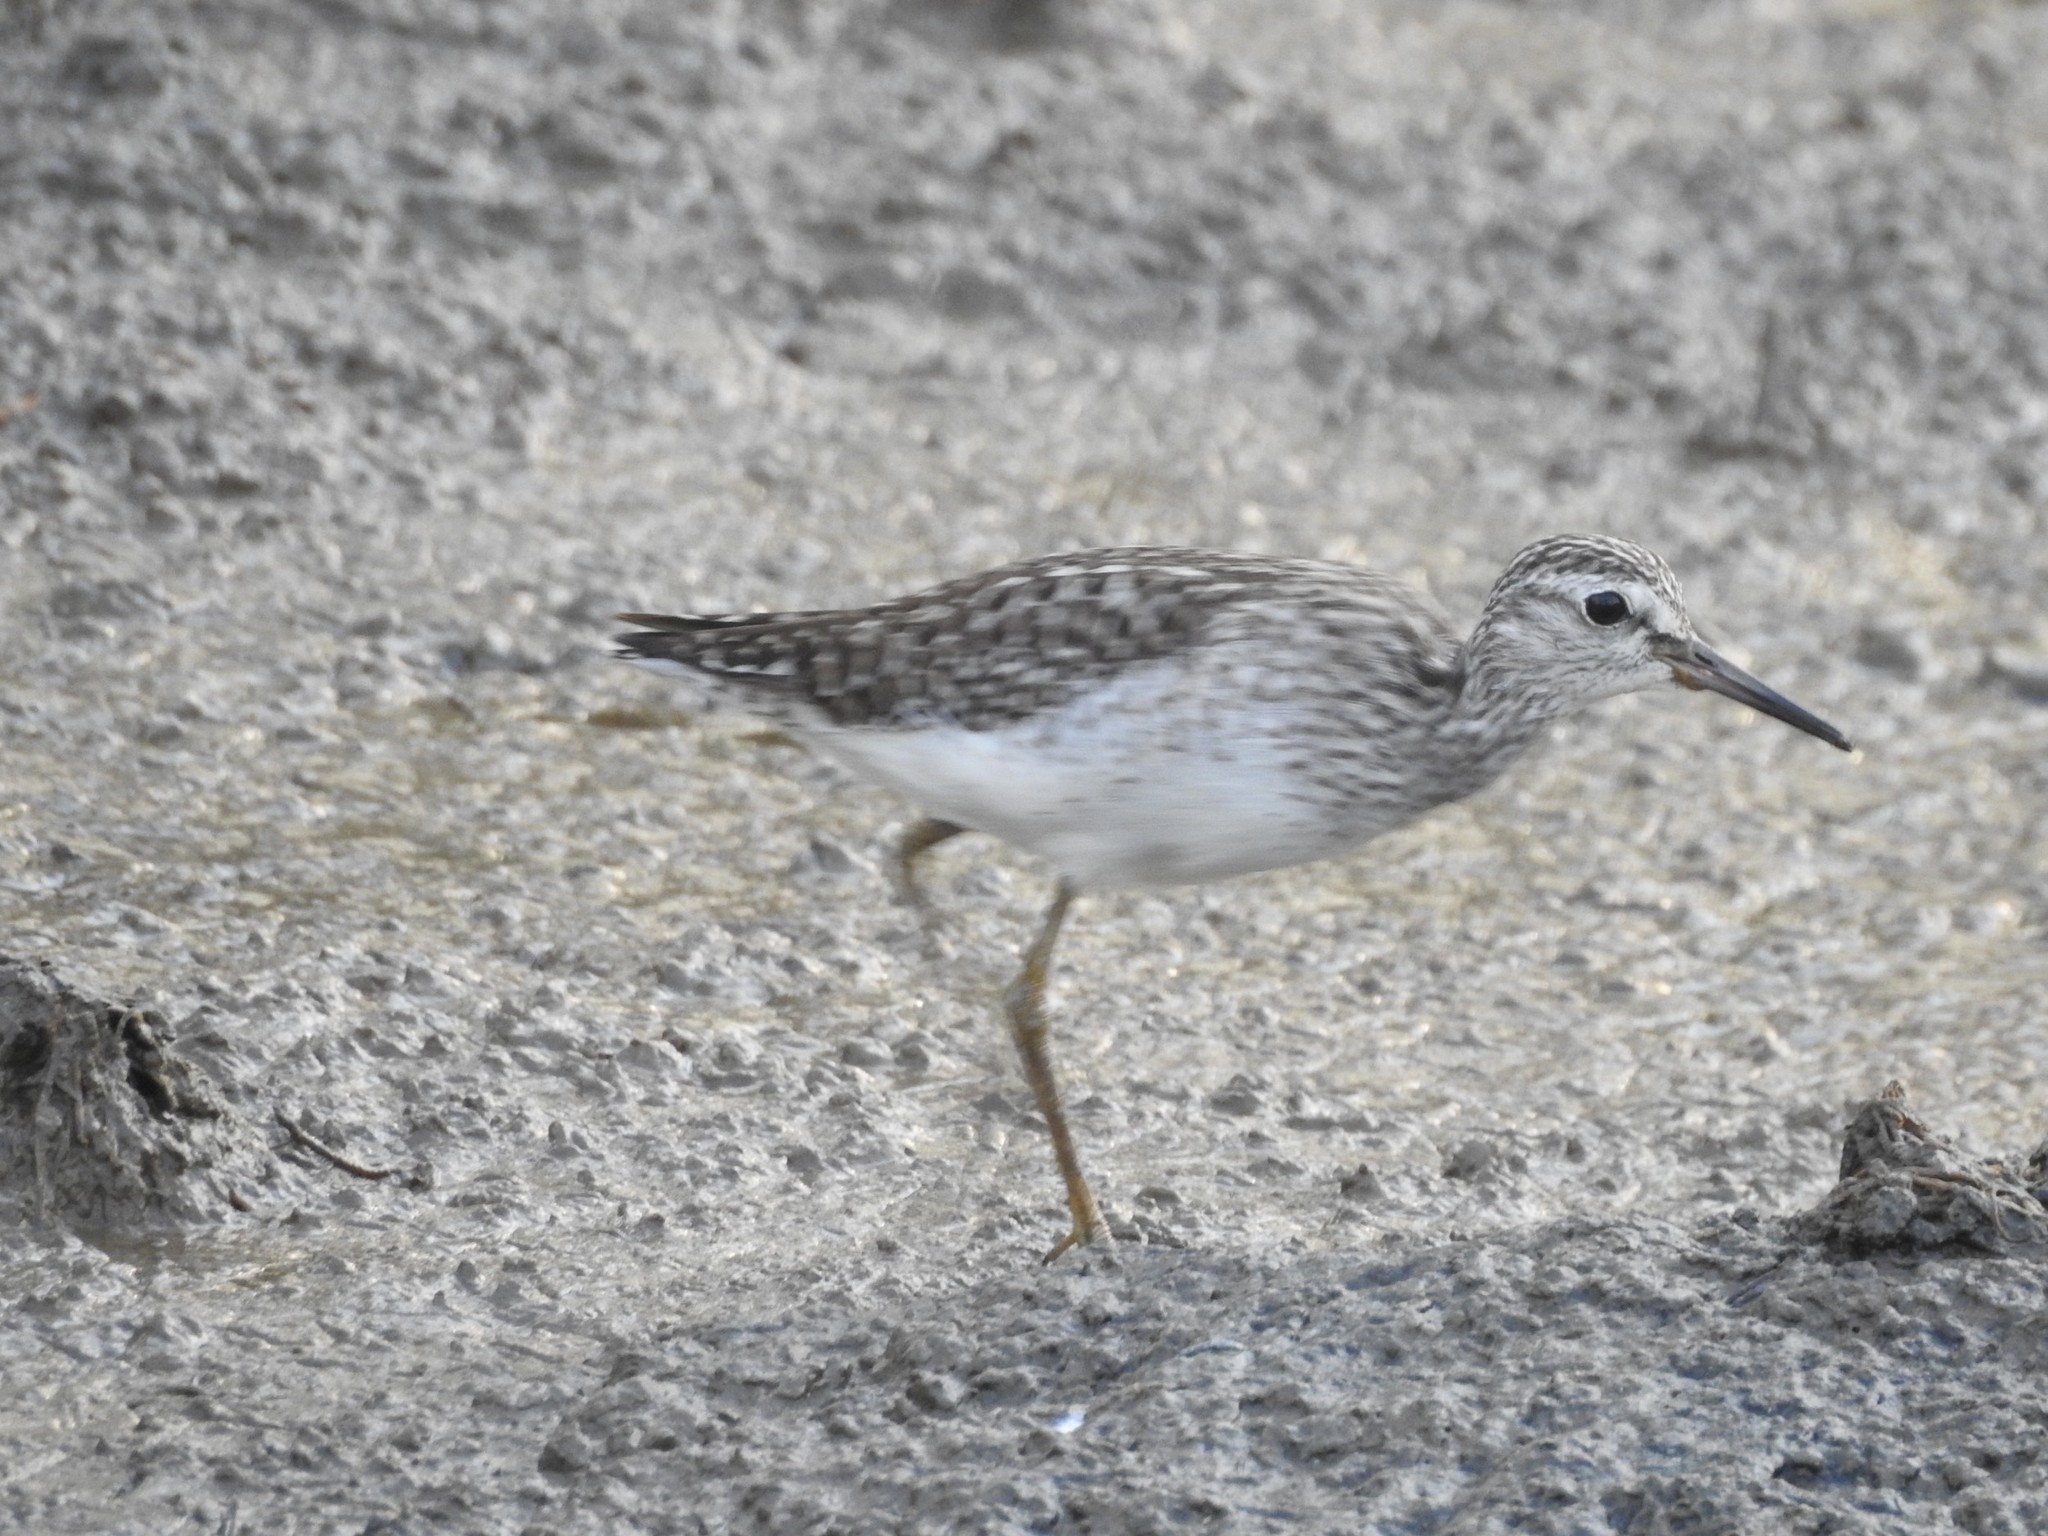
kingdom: Animalia
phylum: Chordata
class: Aves
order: Charadriiformes
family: Scolopacidae
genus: Tringa
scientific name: Tringa glareola
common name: Wood sandpiper
